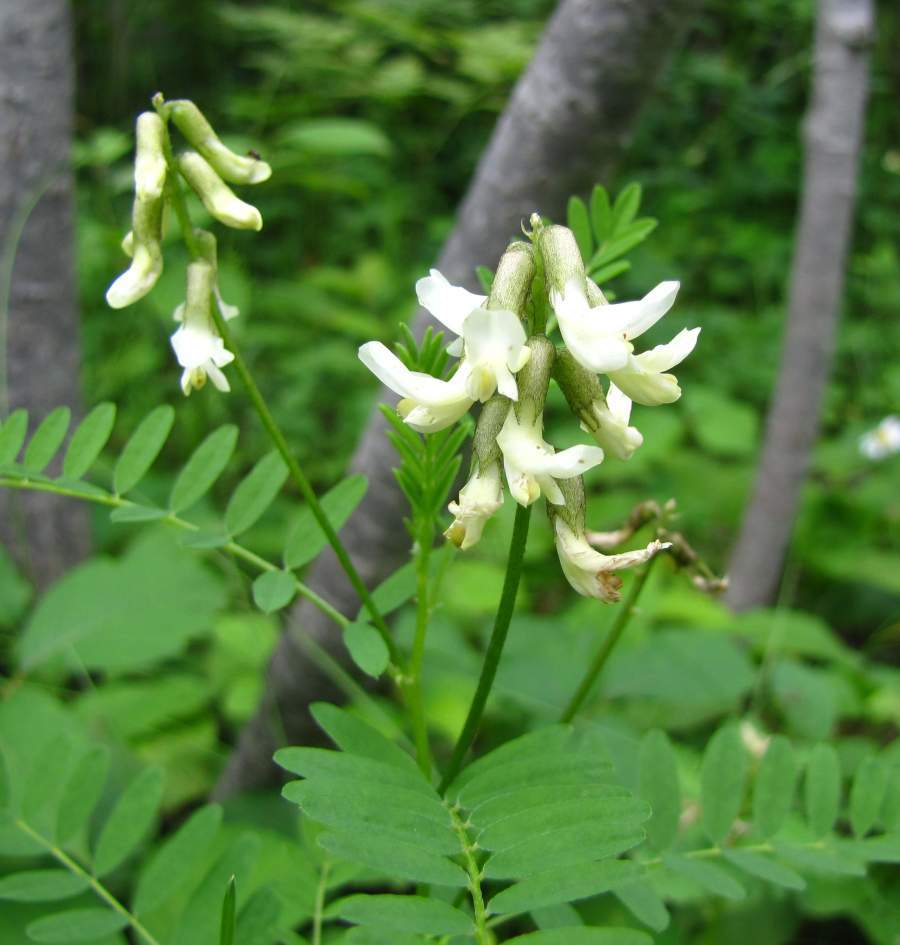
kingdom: Plantae
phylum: Tracheophyta
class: Magnoliopsida
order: Fabales
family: Fabaceae
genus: Astragalus
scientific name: Astragalus canadensis
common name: Canada milk-vetch
